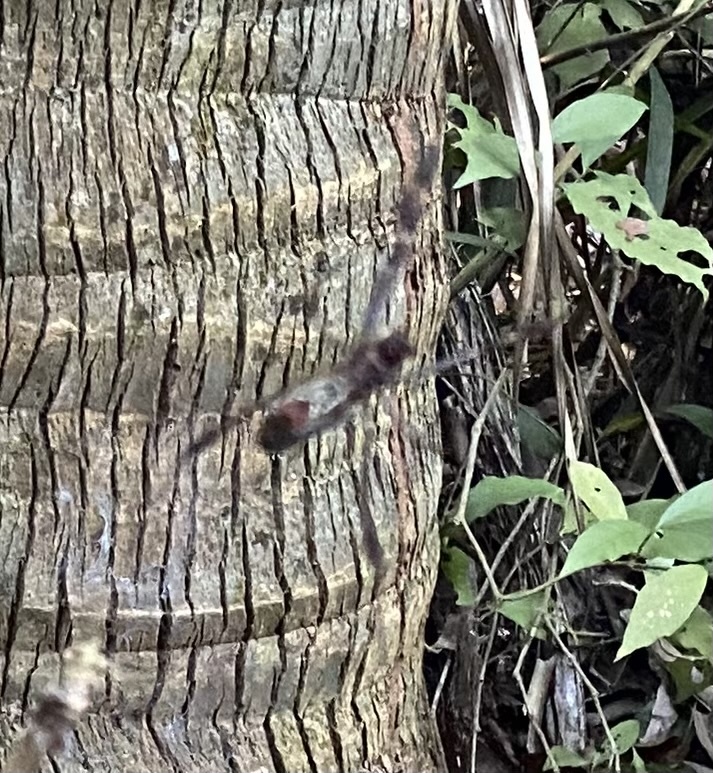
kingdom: Animalia
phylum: Arthropoda
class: Arachnida
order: Araneae
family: Araneidae
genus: Trichonephila
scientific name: Trichonephila clavipes
